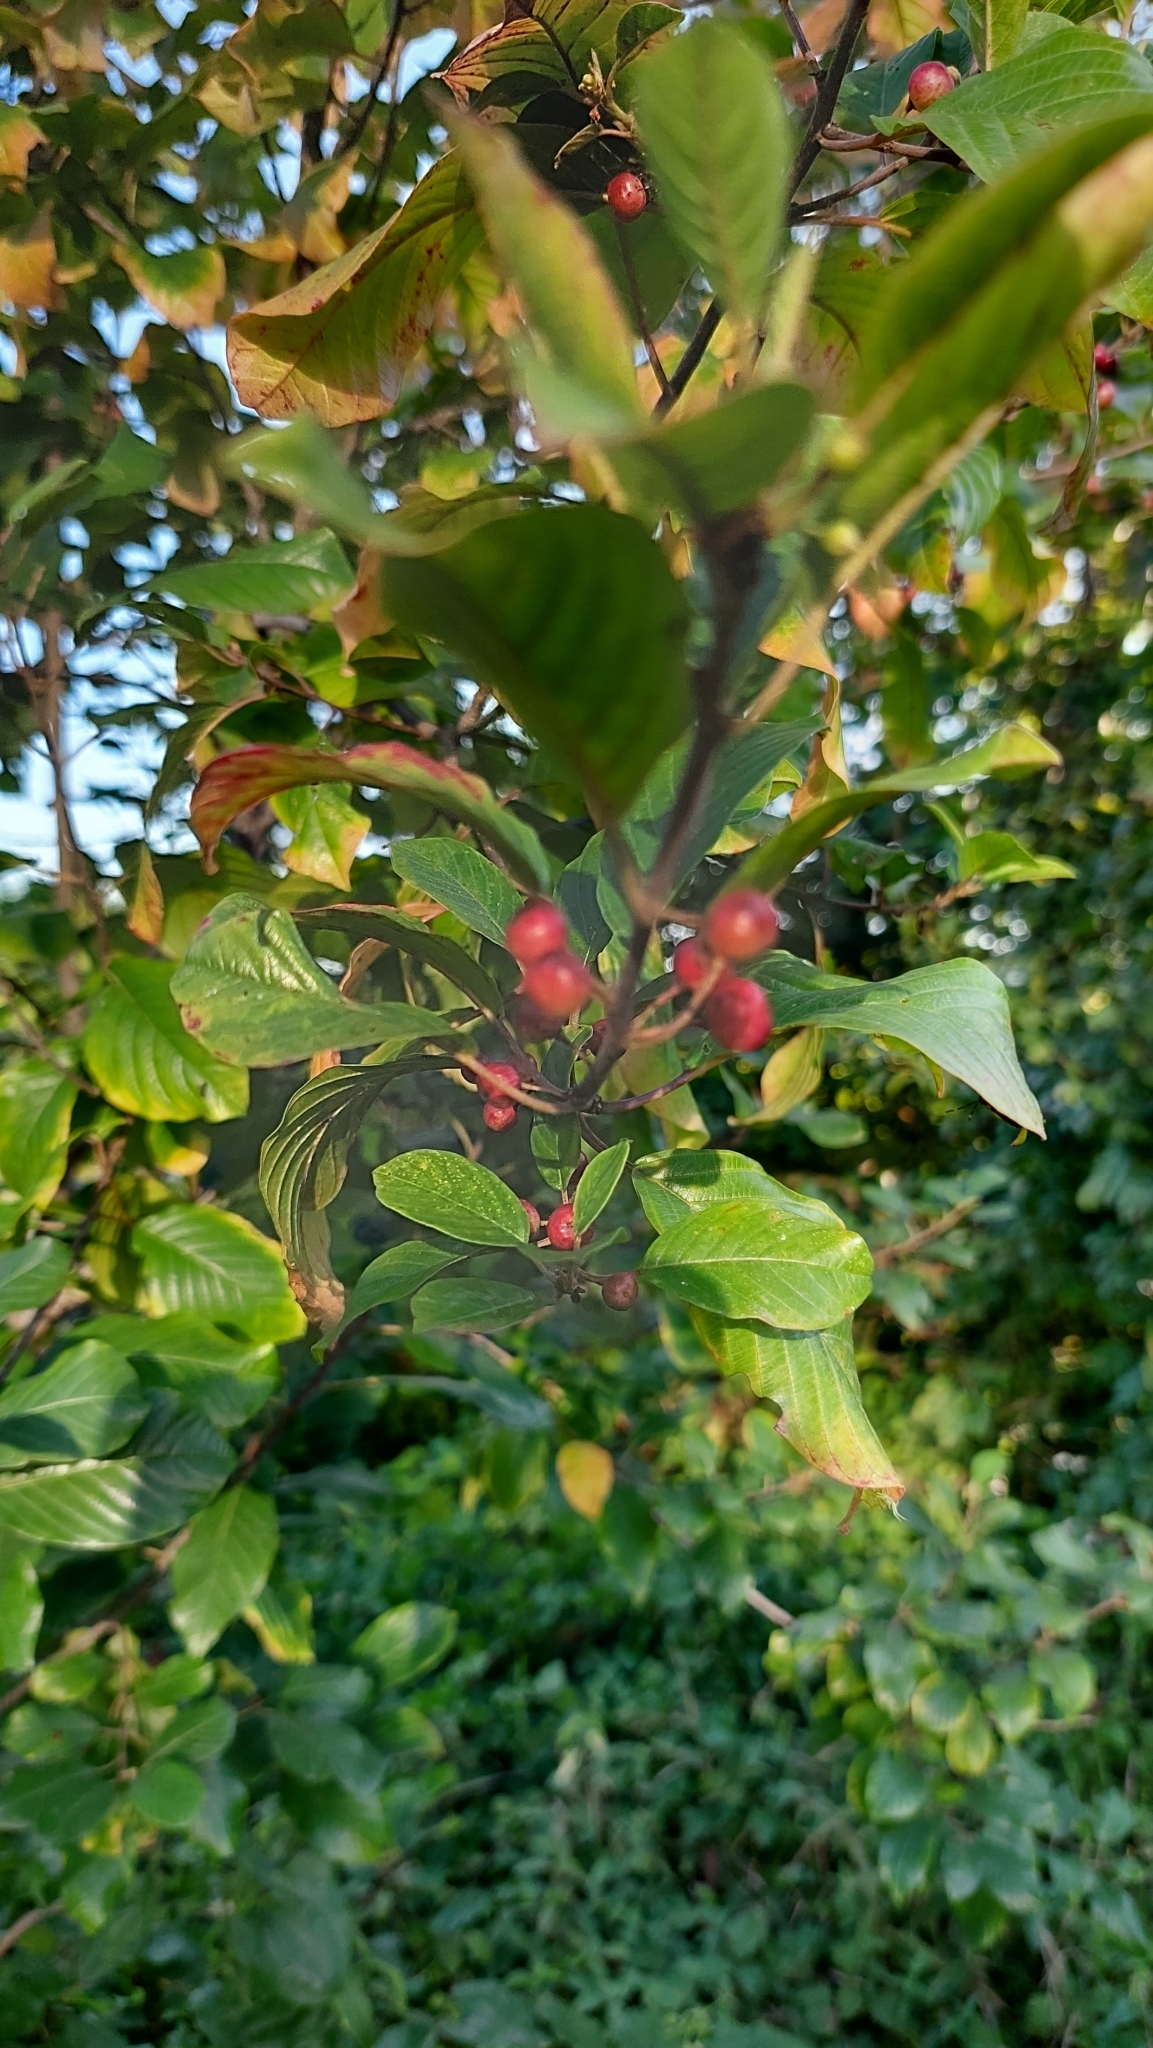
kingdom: Plantae
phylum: Tracheophyta
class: Magnoliopsida
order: Rosales
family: Rhamnaceae
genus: Frangula
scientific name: Frangula alnus
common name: Alder buckthorn
